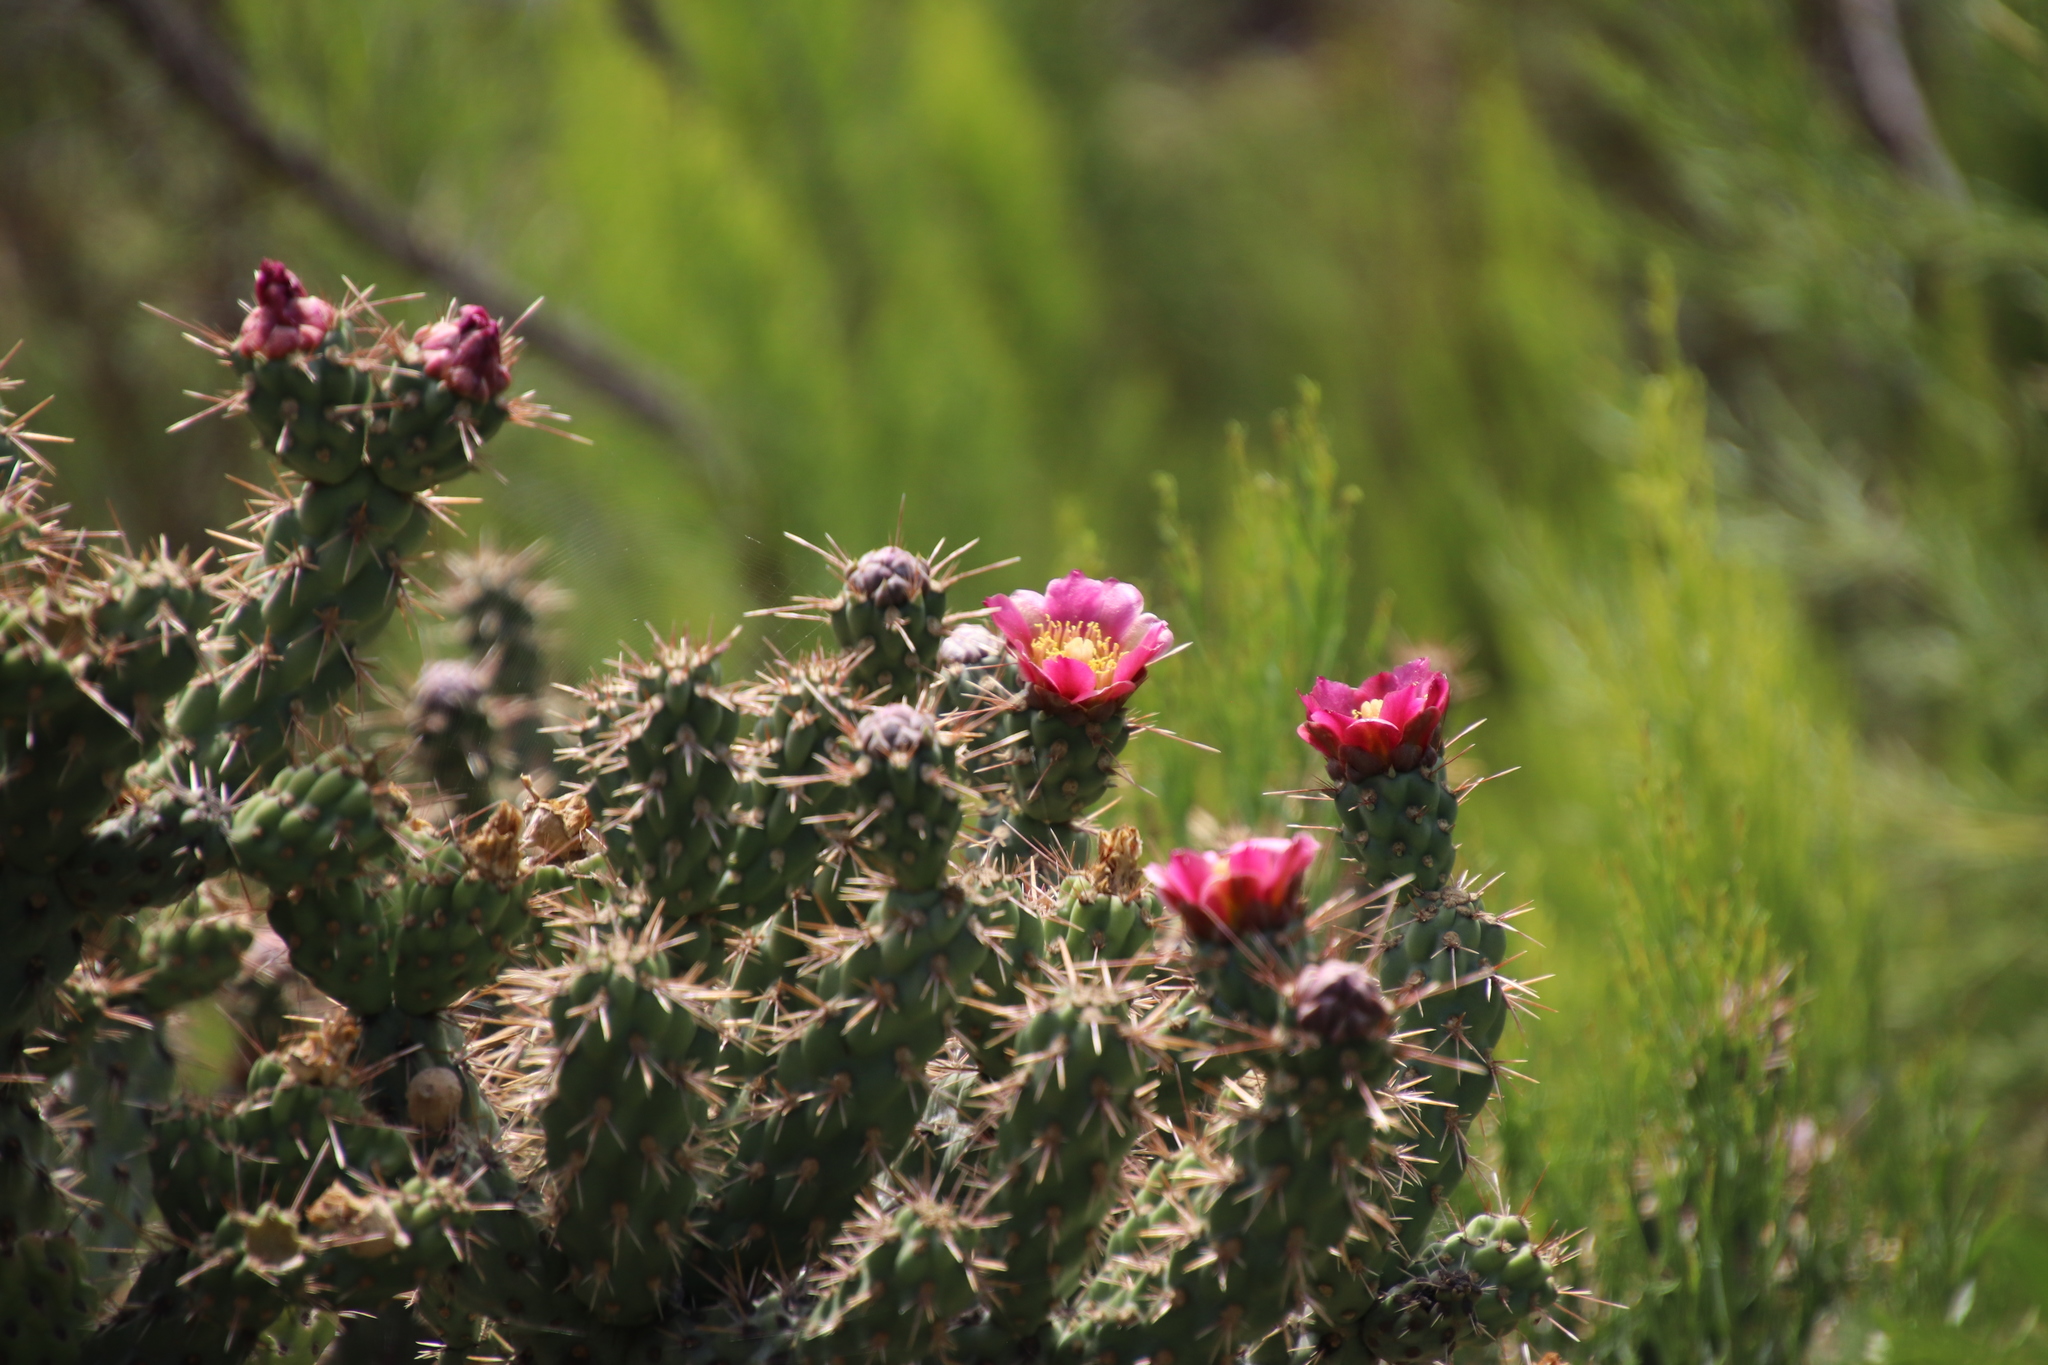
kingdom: Plantae
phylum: Tracheophyta
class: Magnoliopsida
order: Caryophyllales
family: Cactaceae
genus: Cylindropuntia
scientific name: Cylindropuntia prolifera
